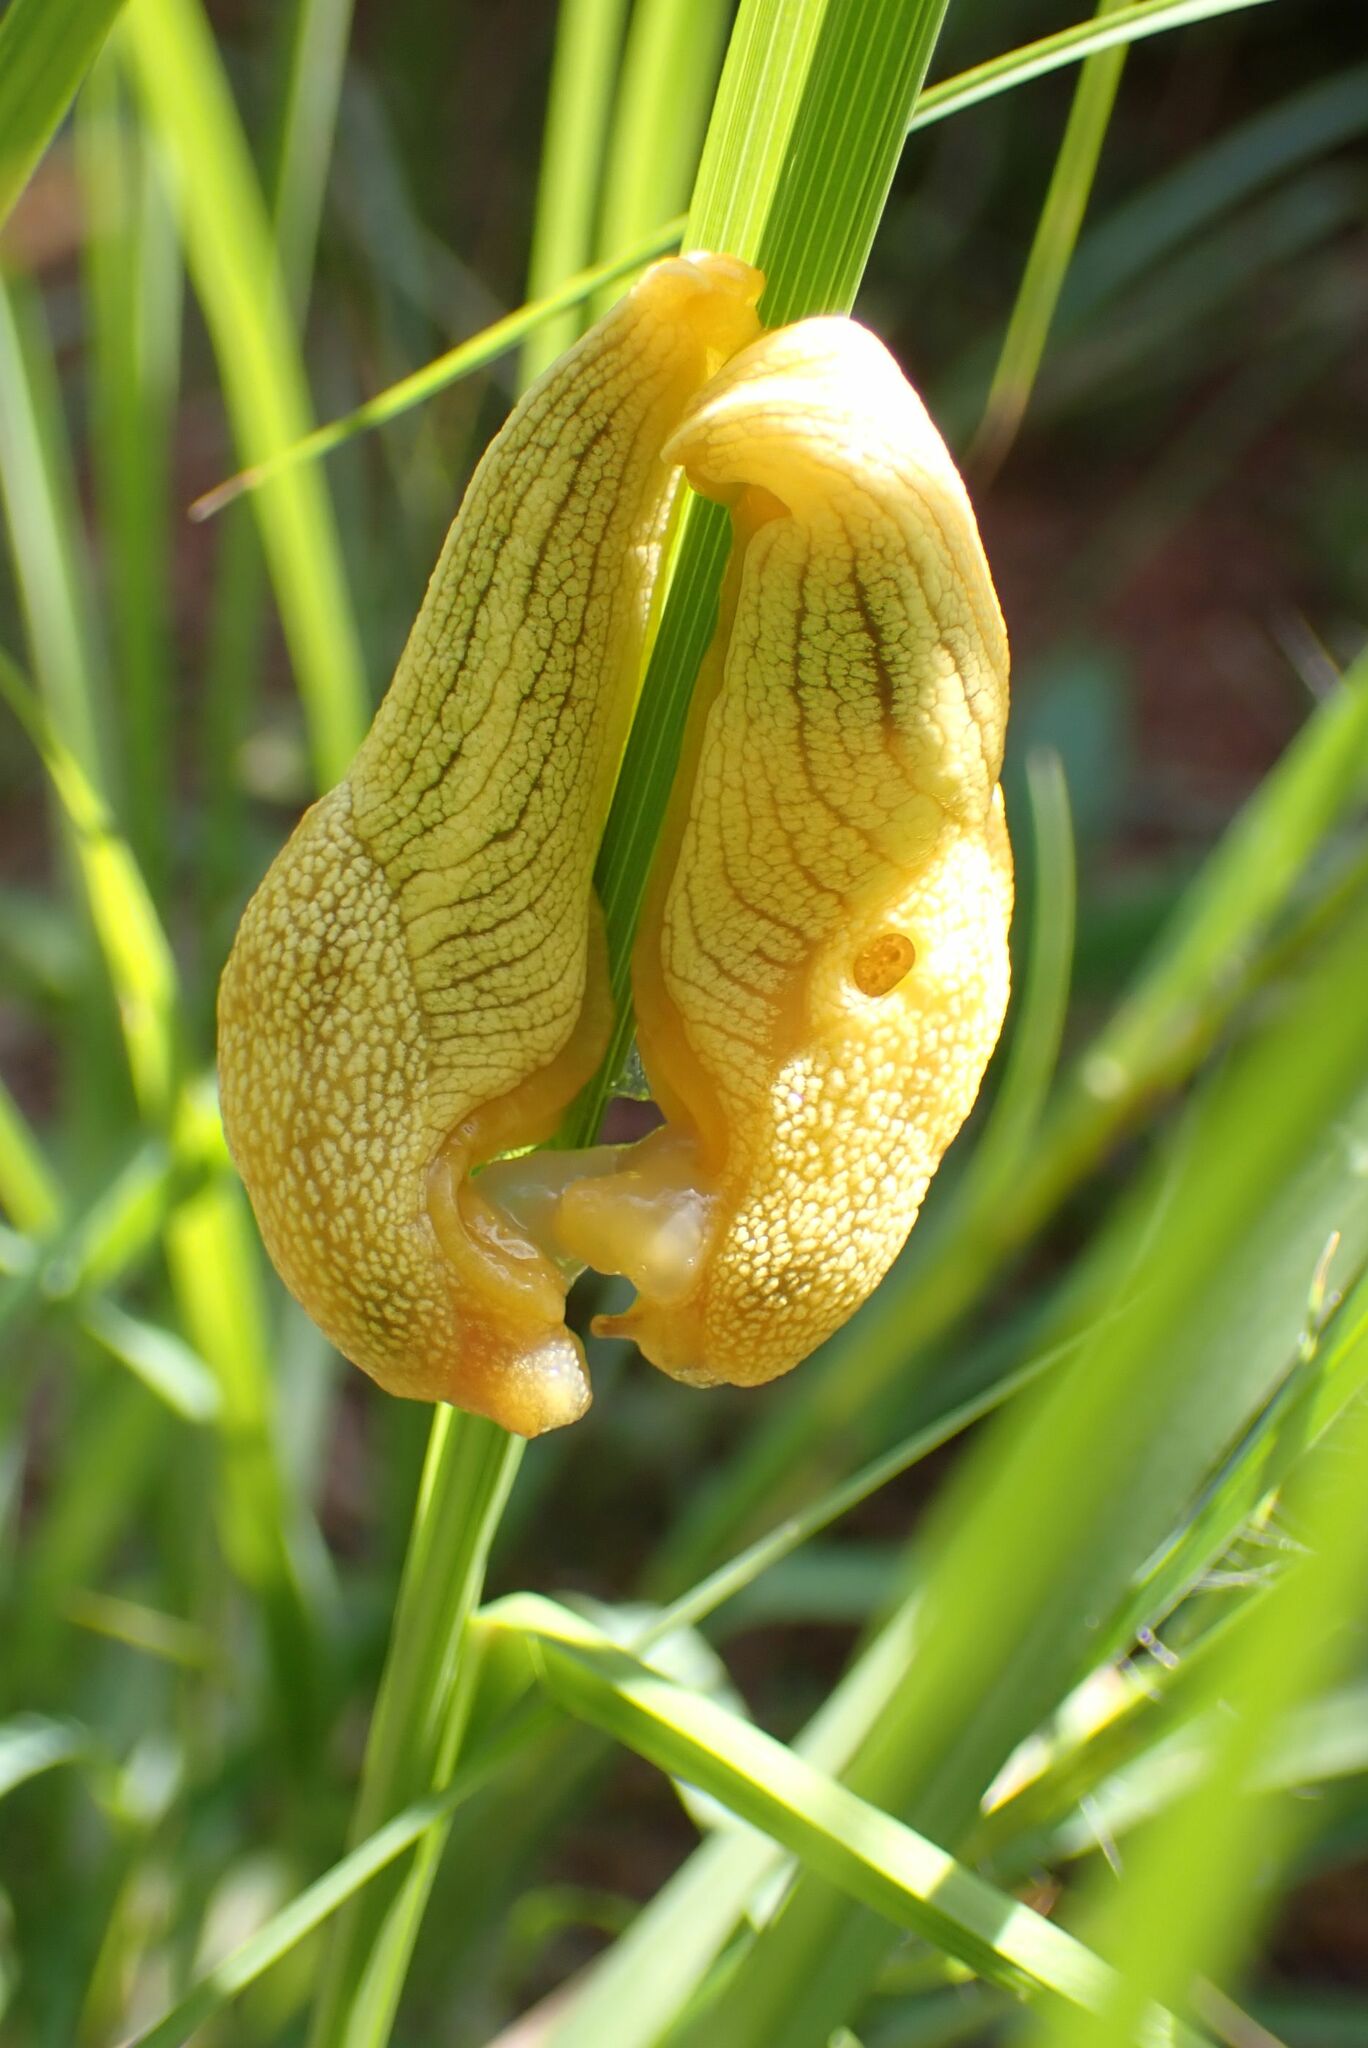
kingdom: Animalia
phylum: Mollusca
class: Gastropoda
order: Stylommatophora
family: Urocyclidae
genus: Elisolimax
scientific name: Elisolimax flavescens
